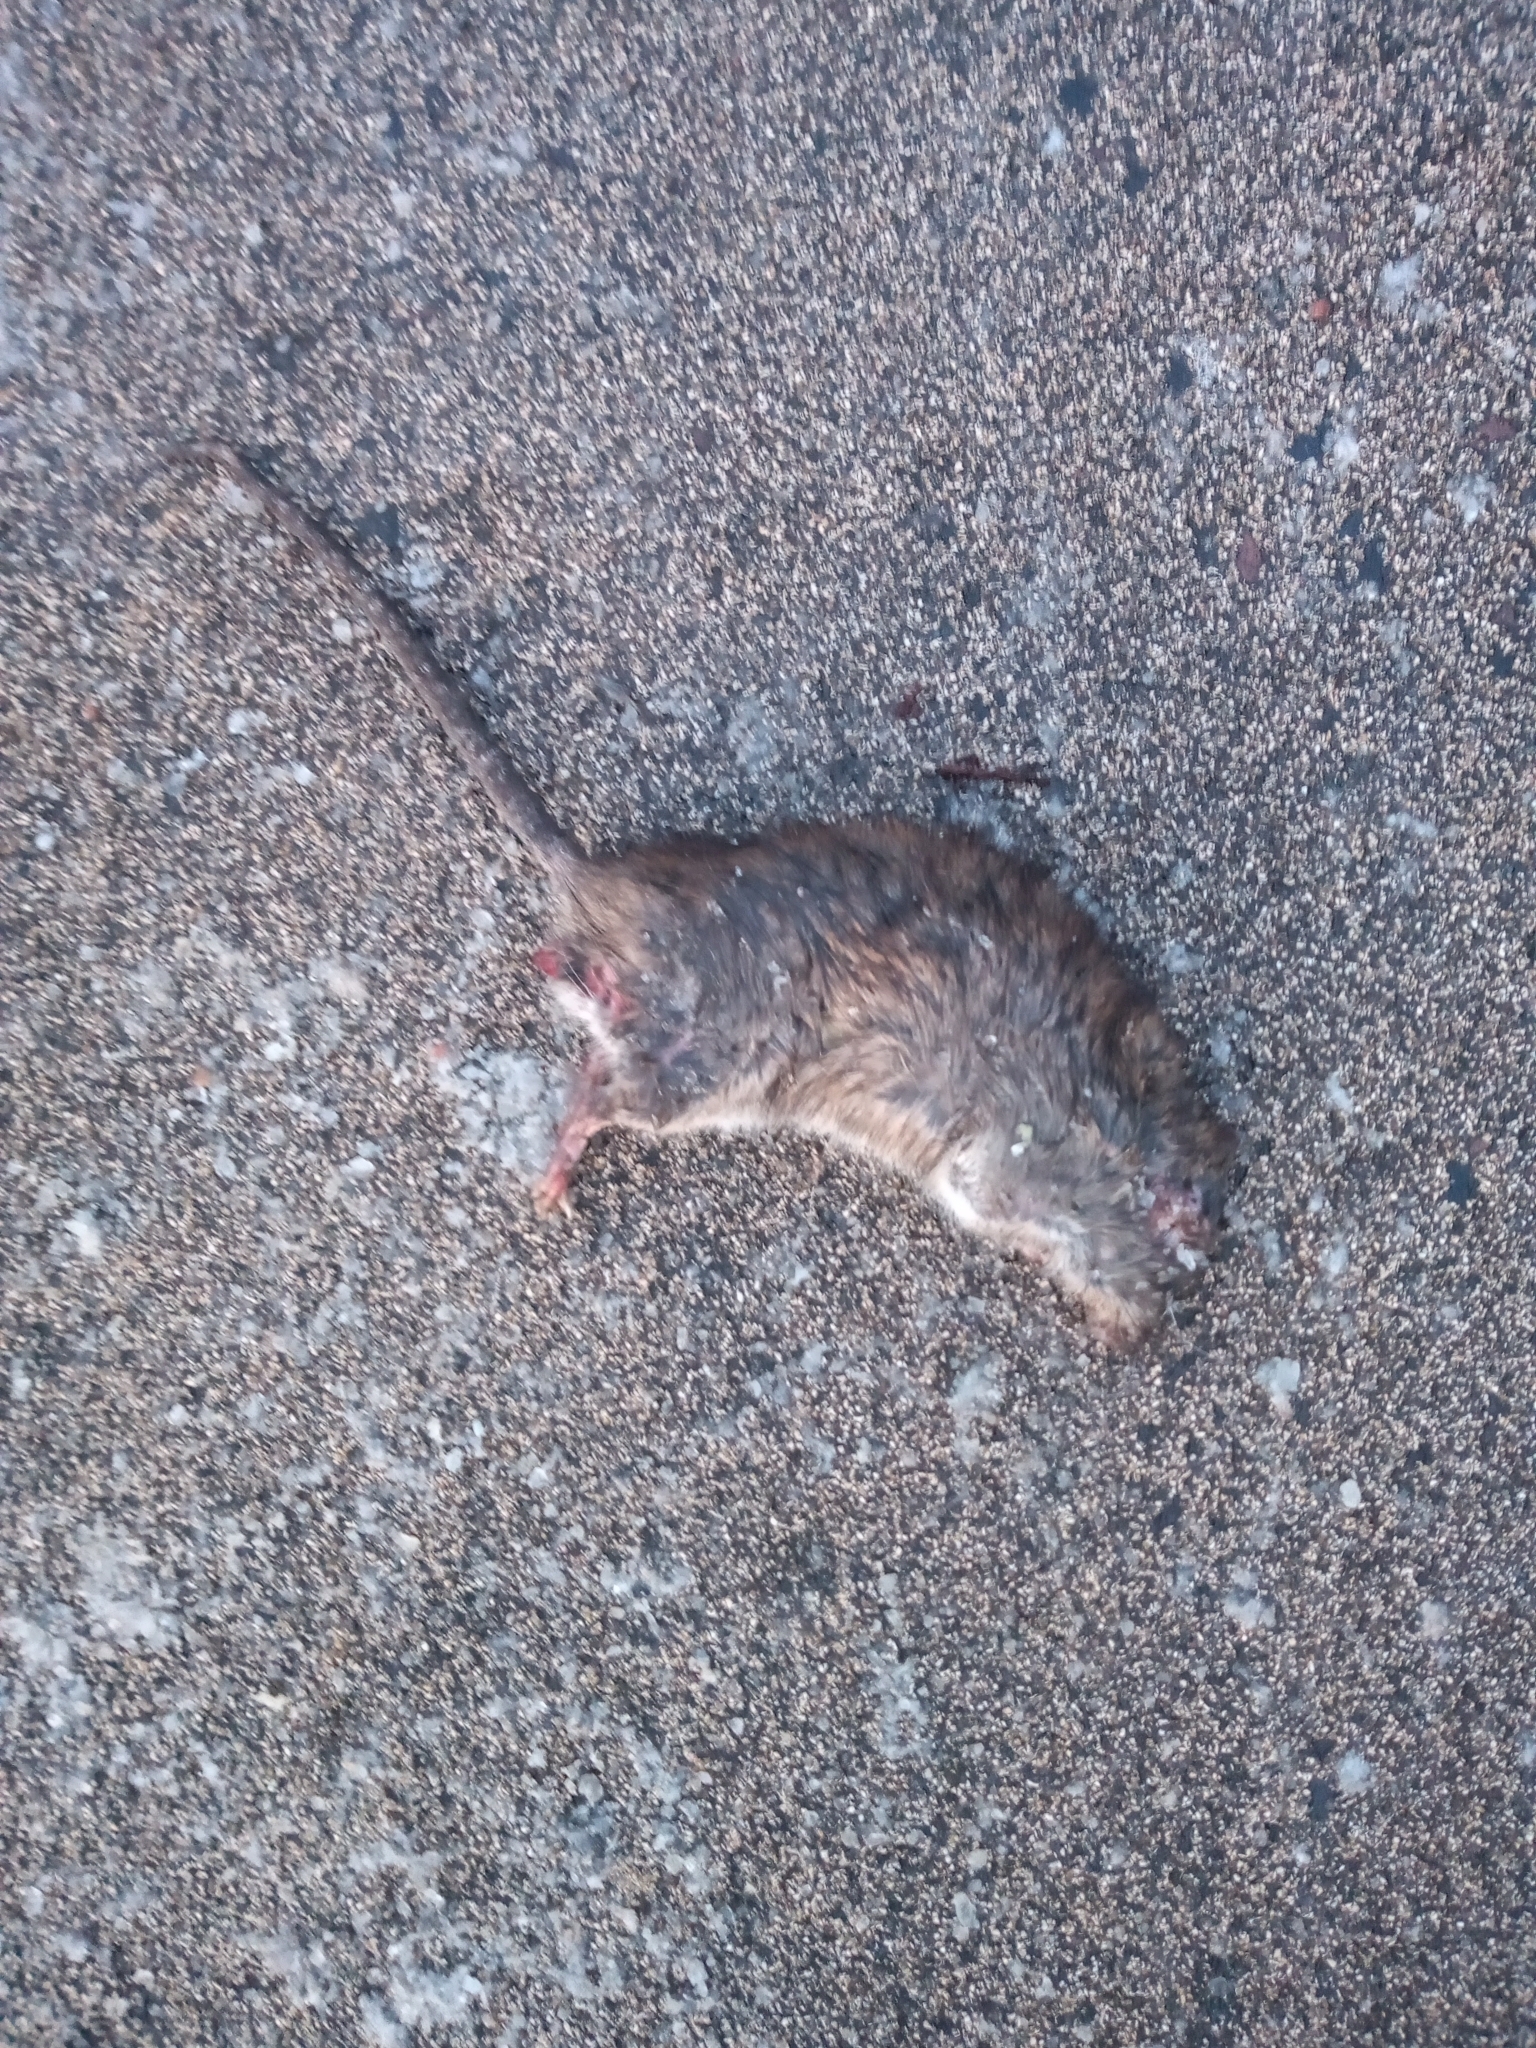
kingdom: Animalia
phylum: Chordata
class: Mammalia
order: Rodentia
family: Muridae
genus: Rattus
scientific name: Rattus norvegicus
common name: Brown rat
